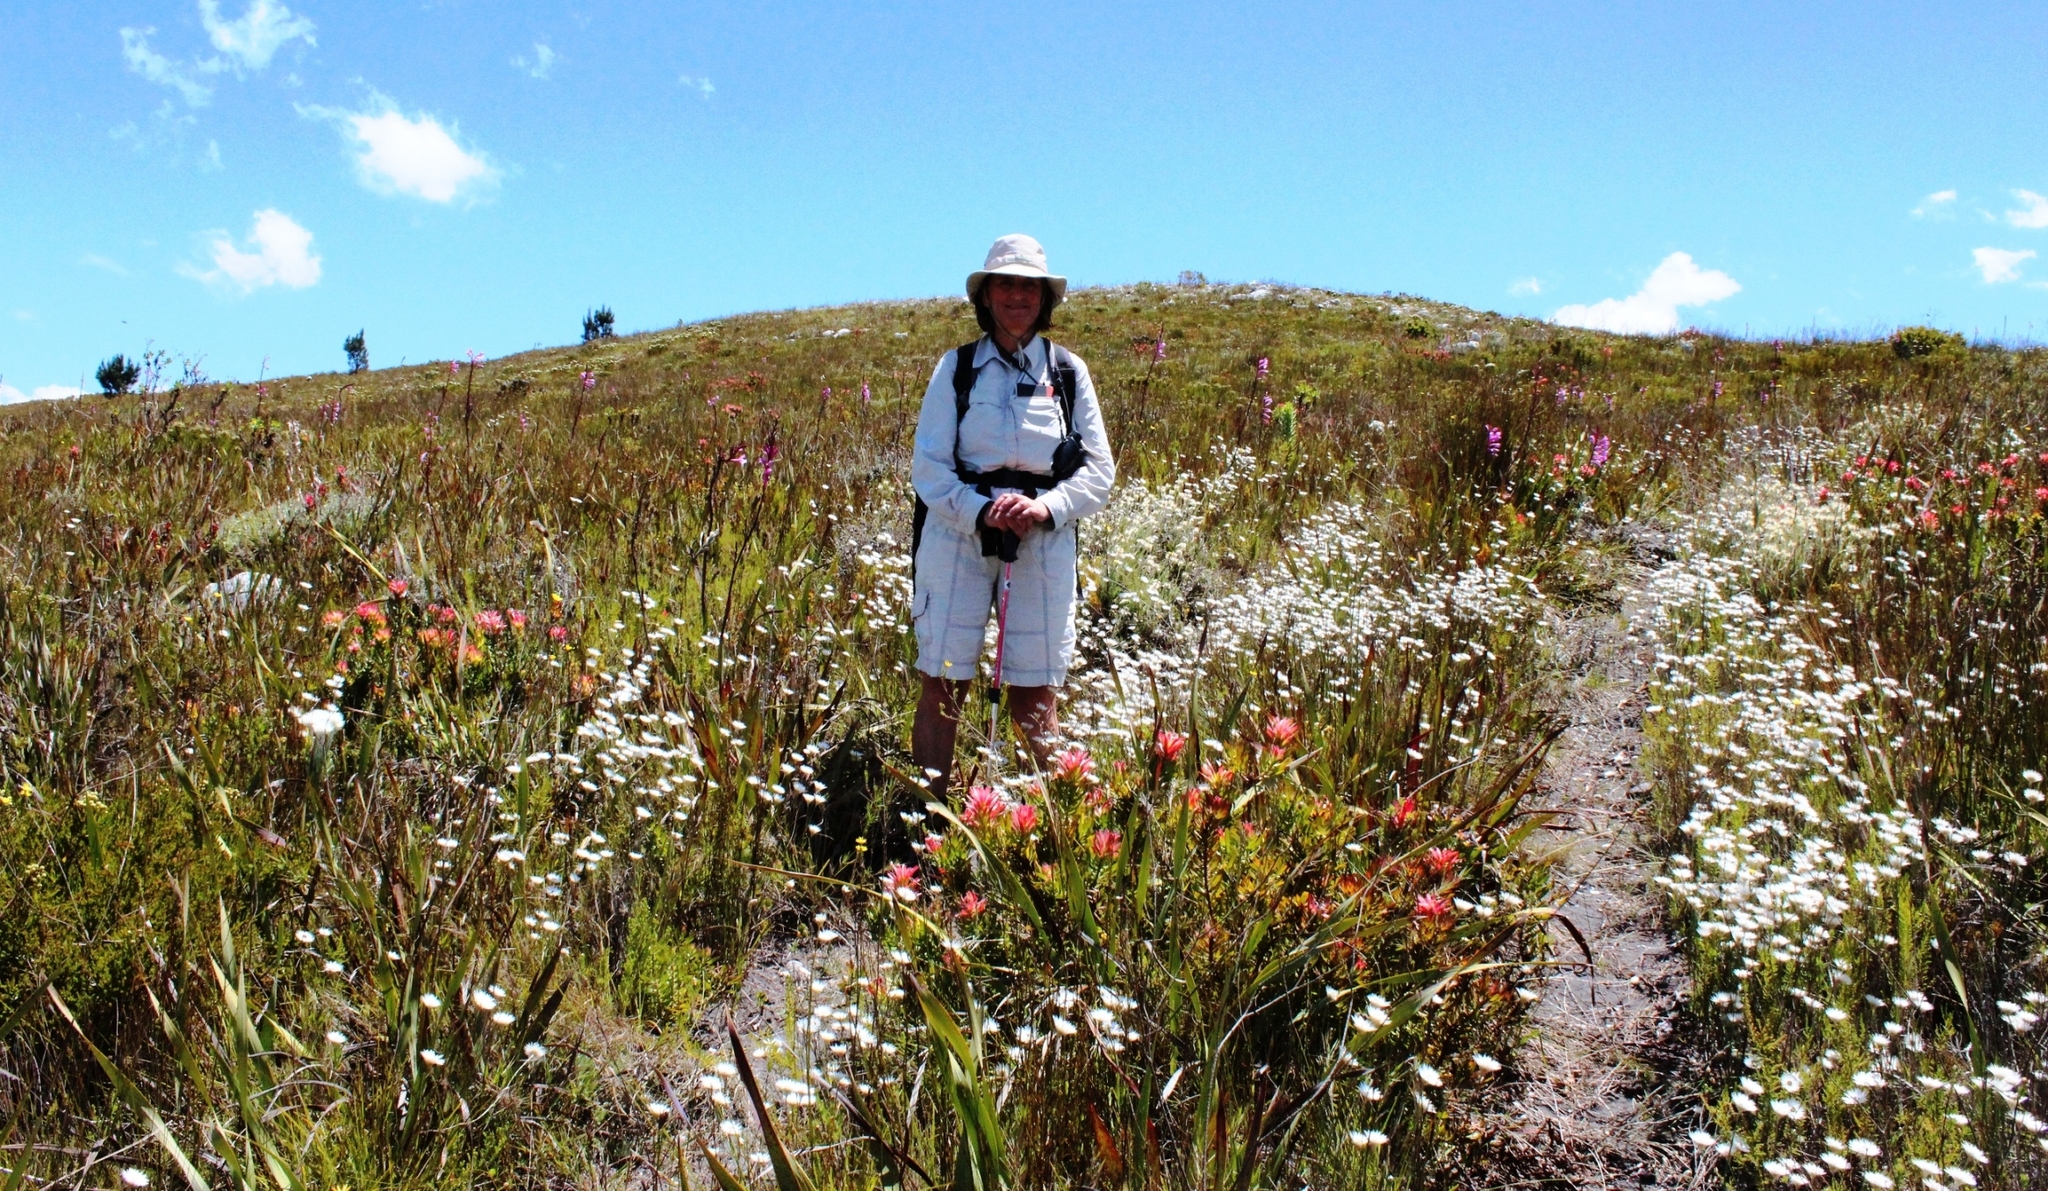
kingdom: Plantae
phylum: Tracheophyta
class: Magnoliopsida
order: Proteales
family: Proteaceae
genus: Mimetes
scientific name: Mimetes cucullatus
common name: Common pagoda
